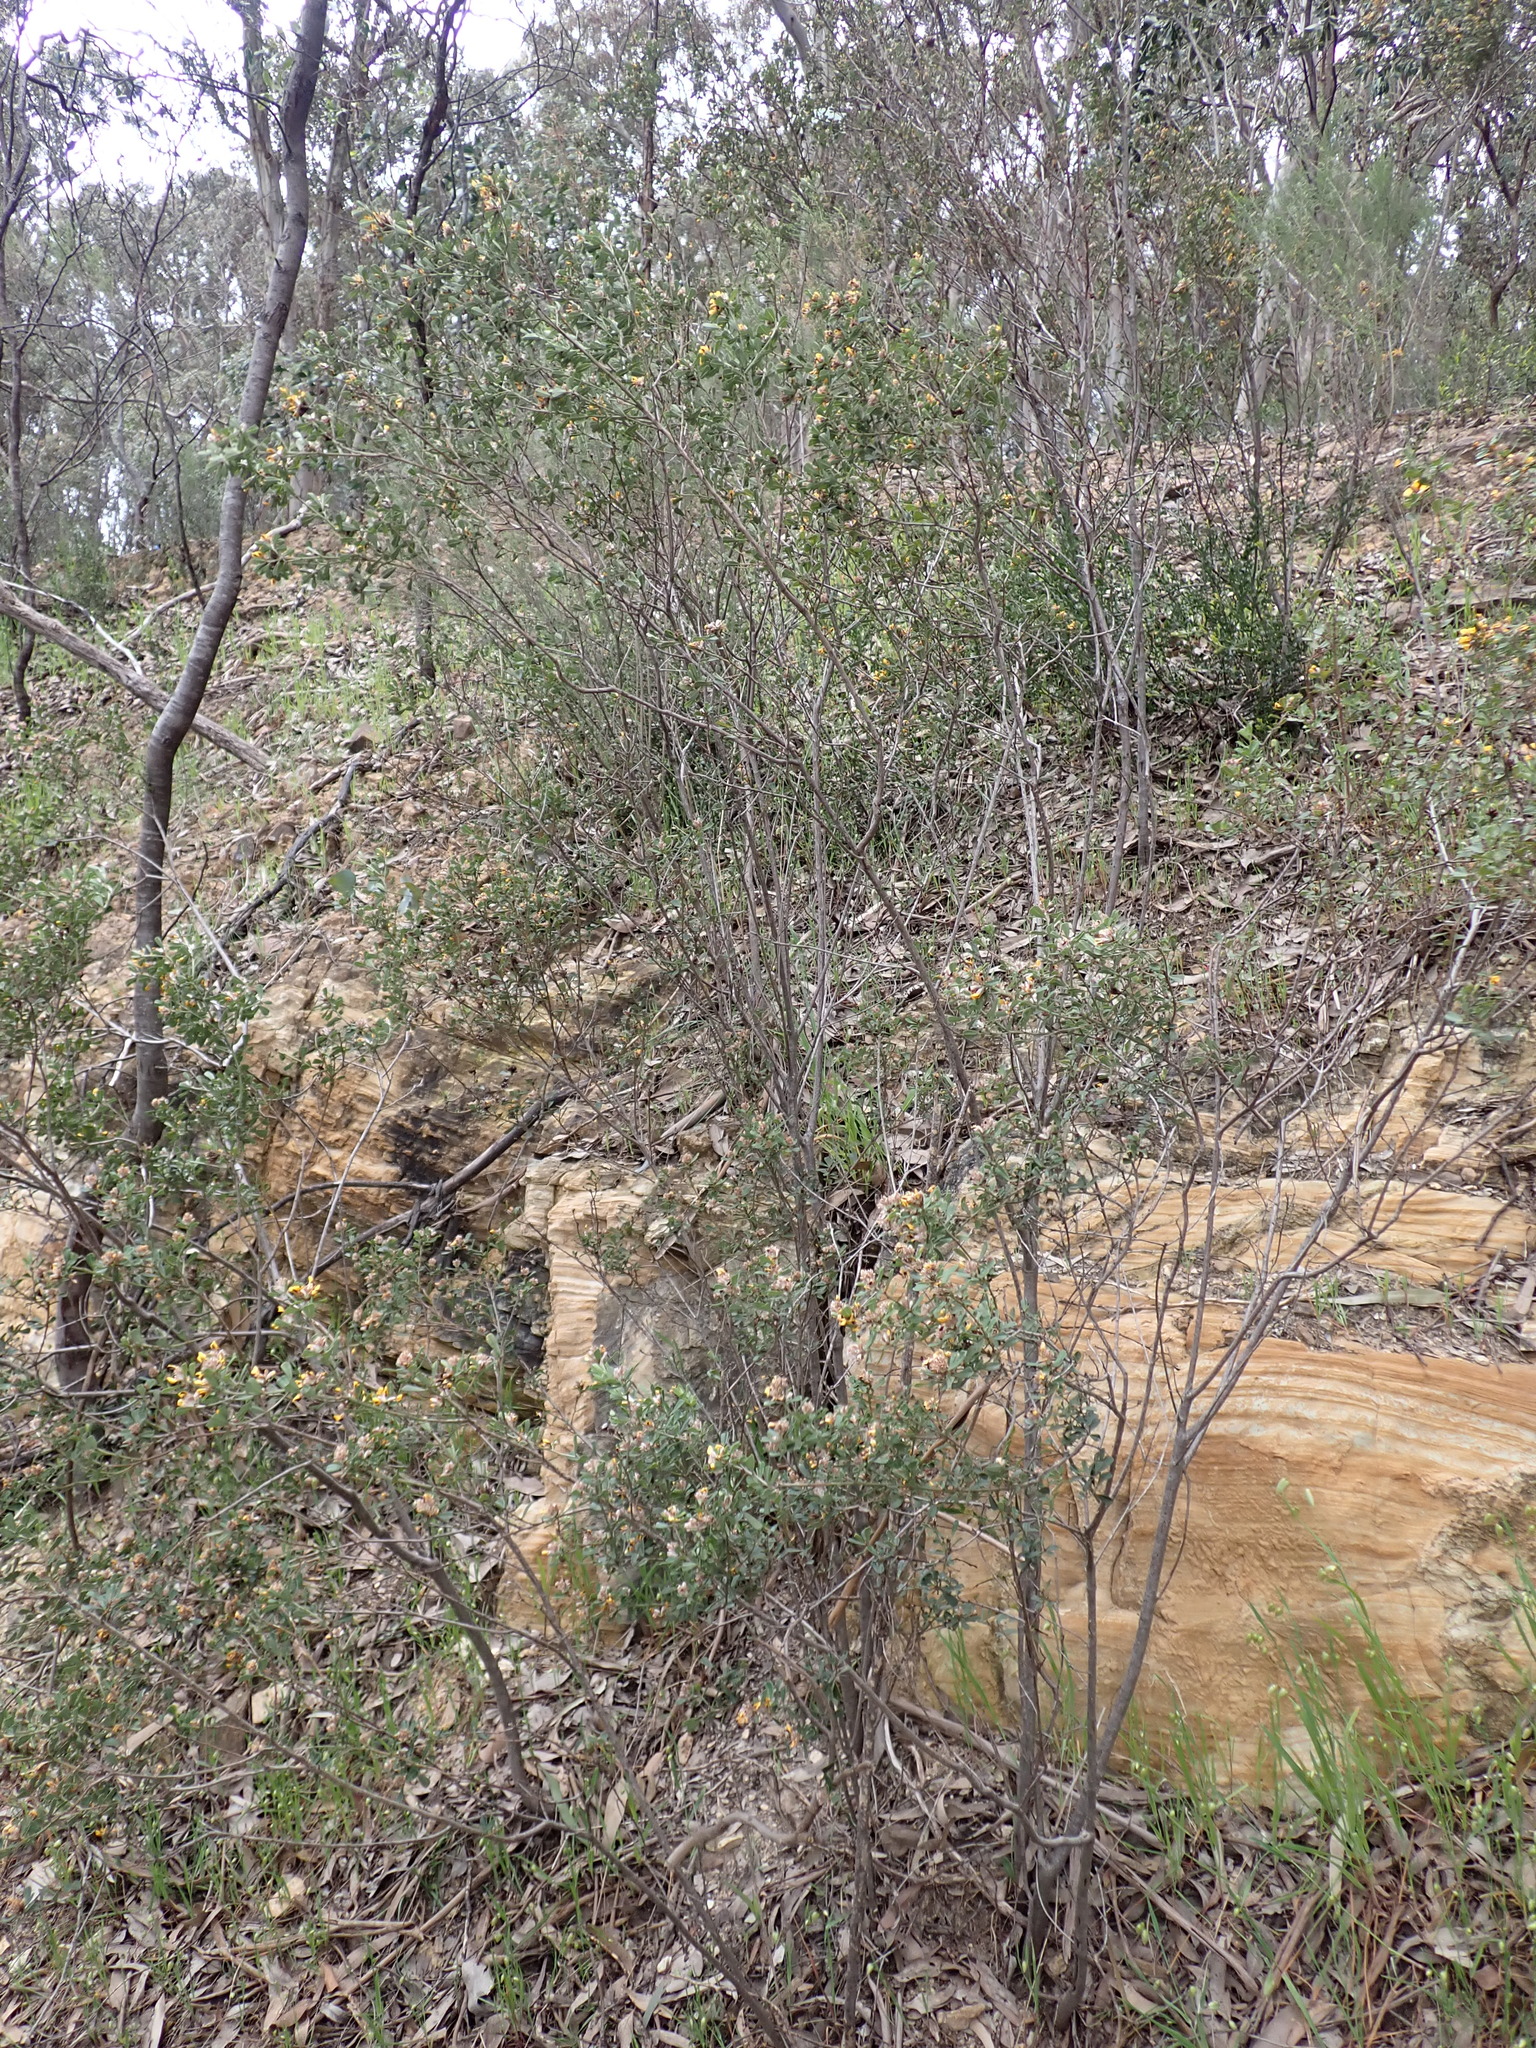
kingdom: Plantae
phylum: Tracheophyta
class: Magnoliopsida
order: Fabales
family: Fabaceae
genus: Pultenaea
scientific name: Pultenaea daphnoides
